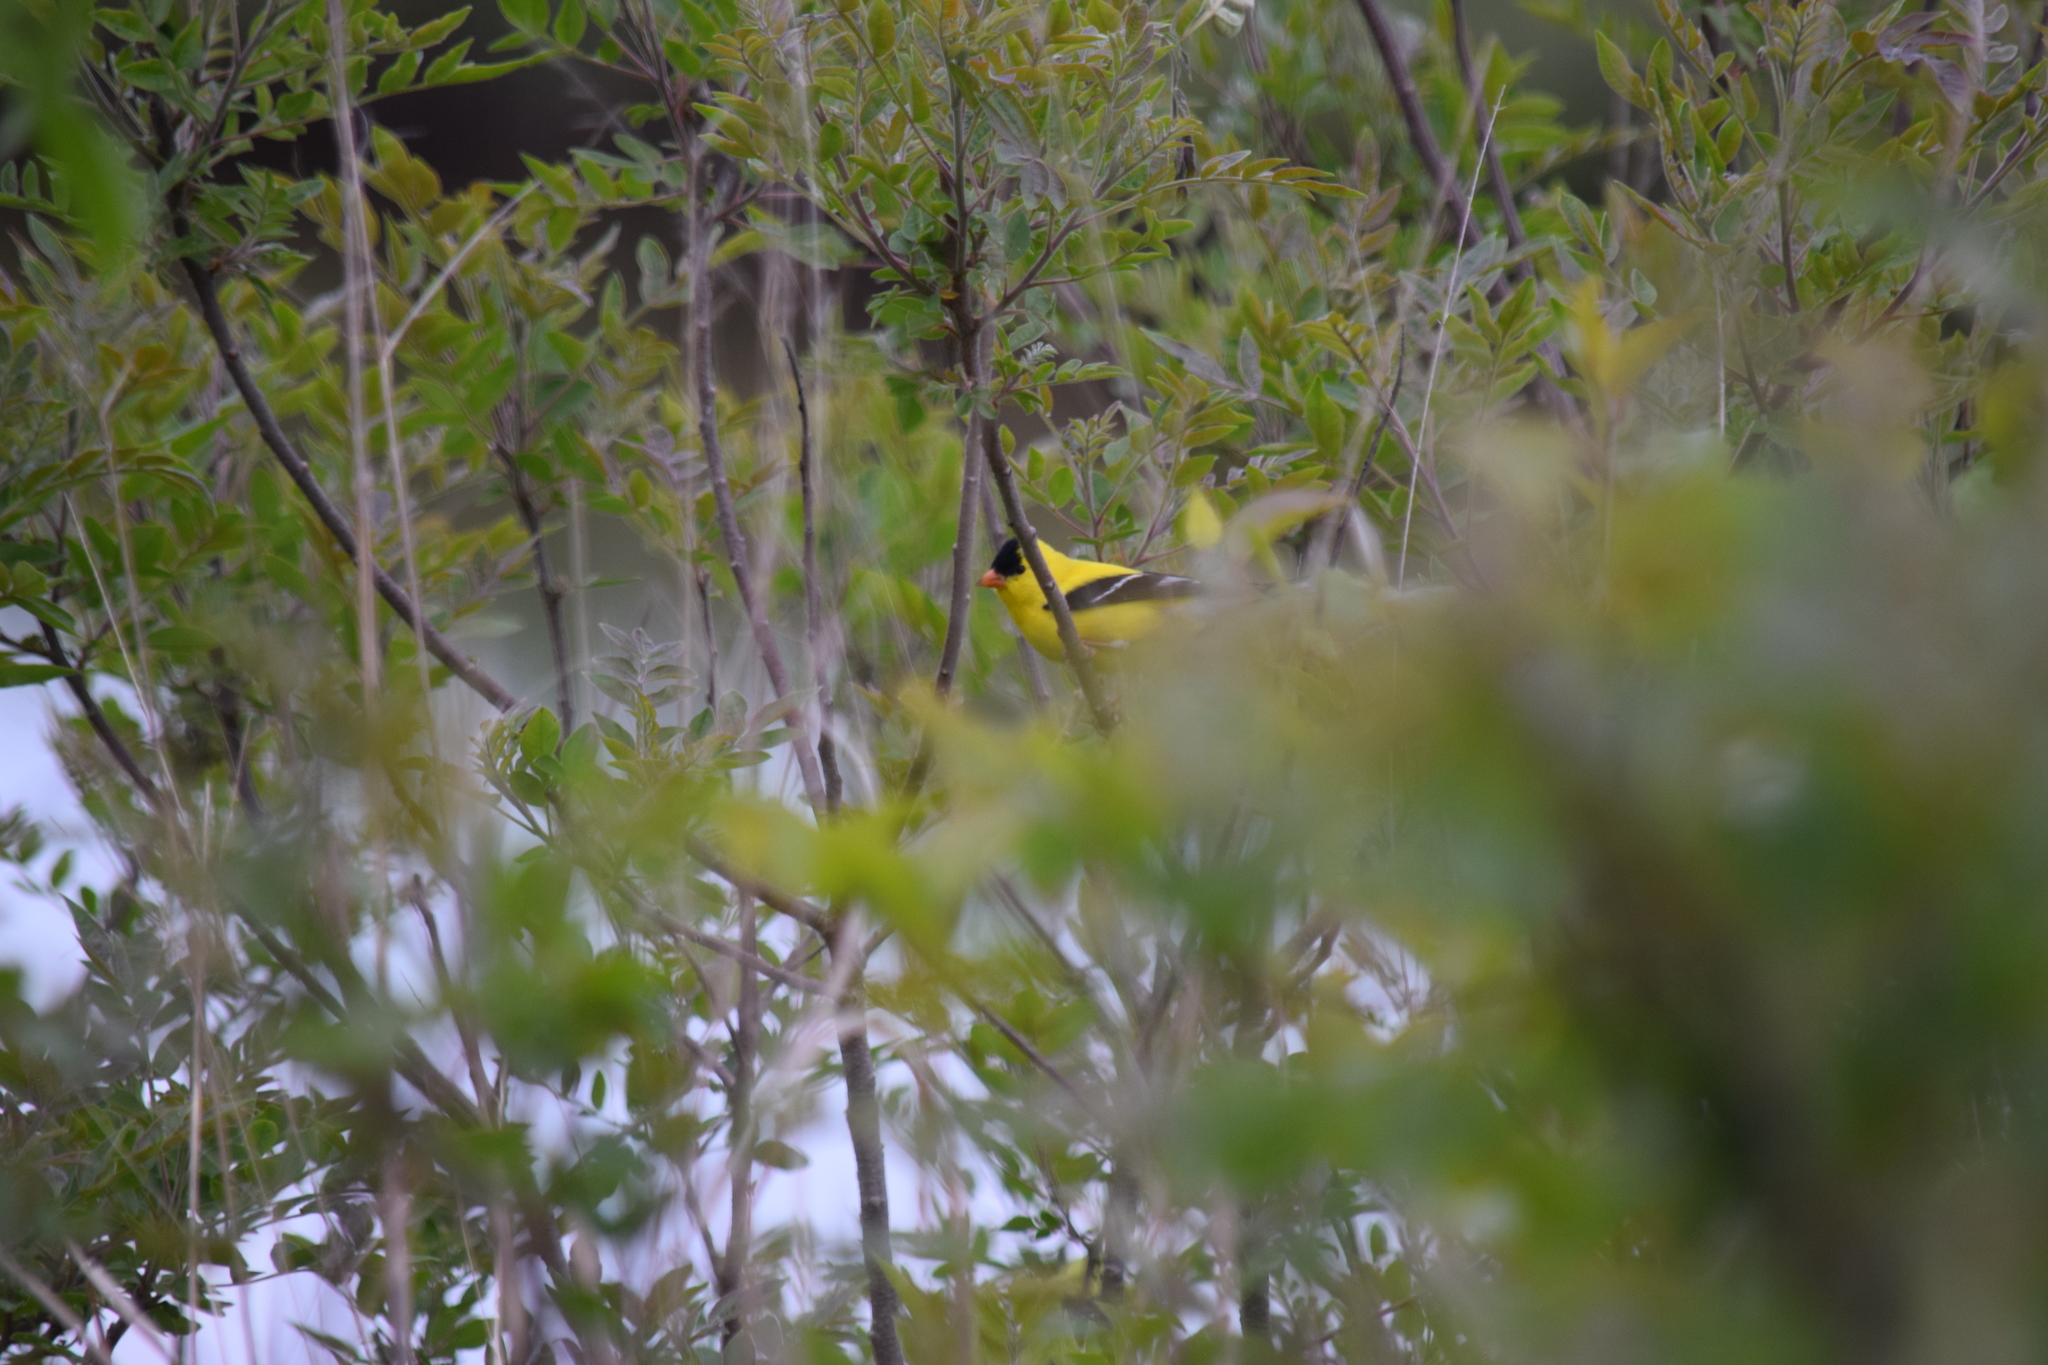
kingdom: Animalia
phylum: Chordata
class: Aves
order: Passeriformes
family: Fringillidae
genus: Spinus
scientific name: Spinus tristis
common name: American goldfinch
